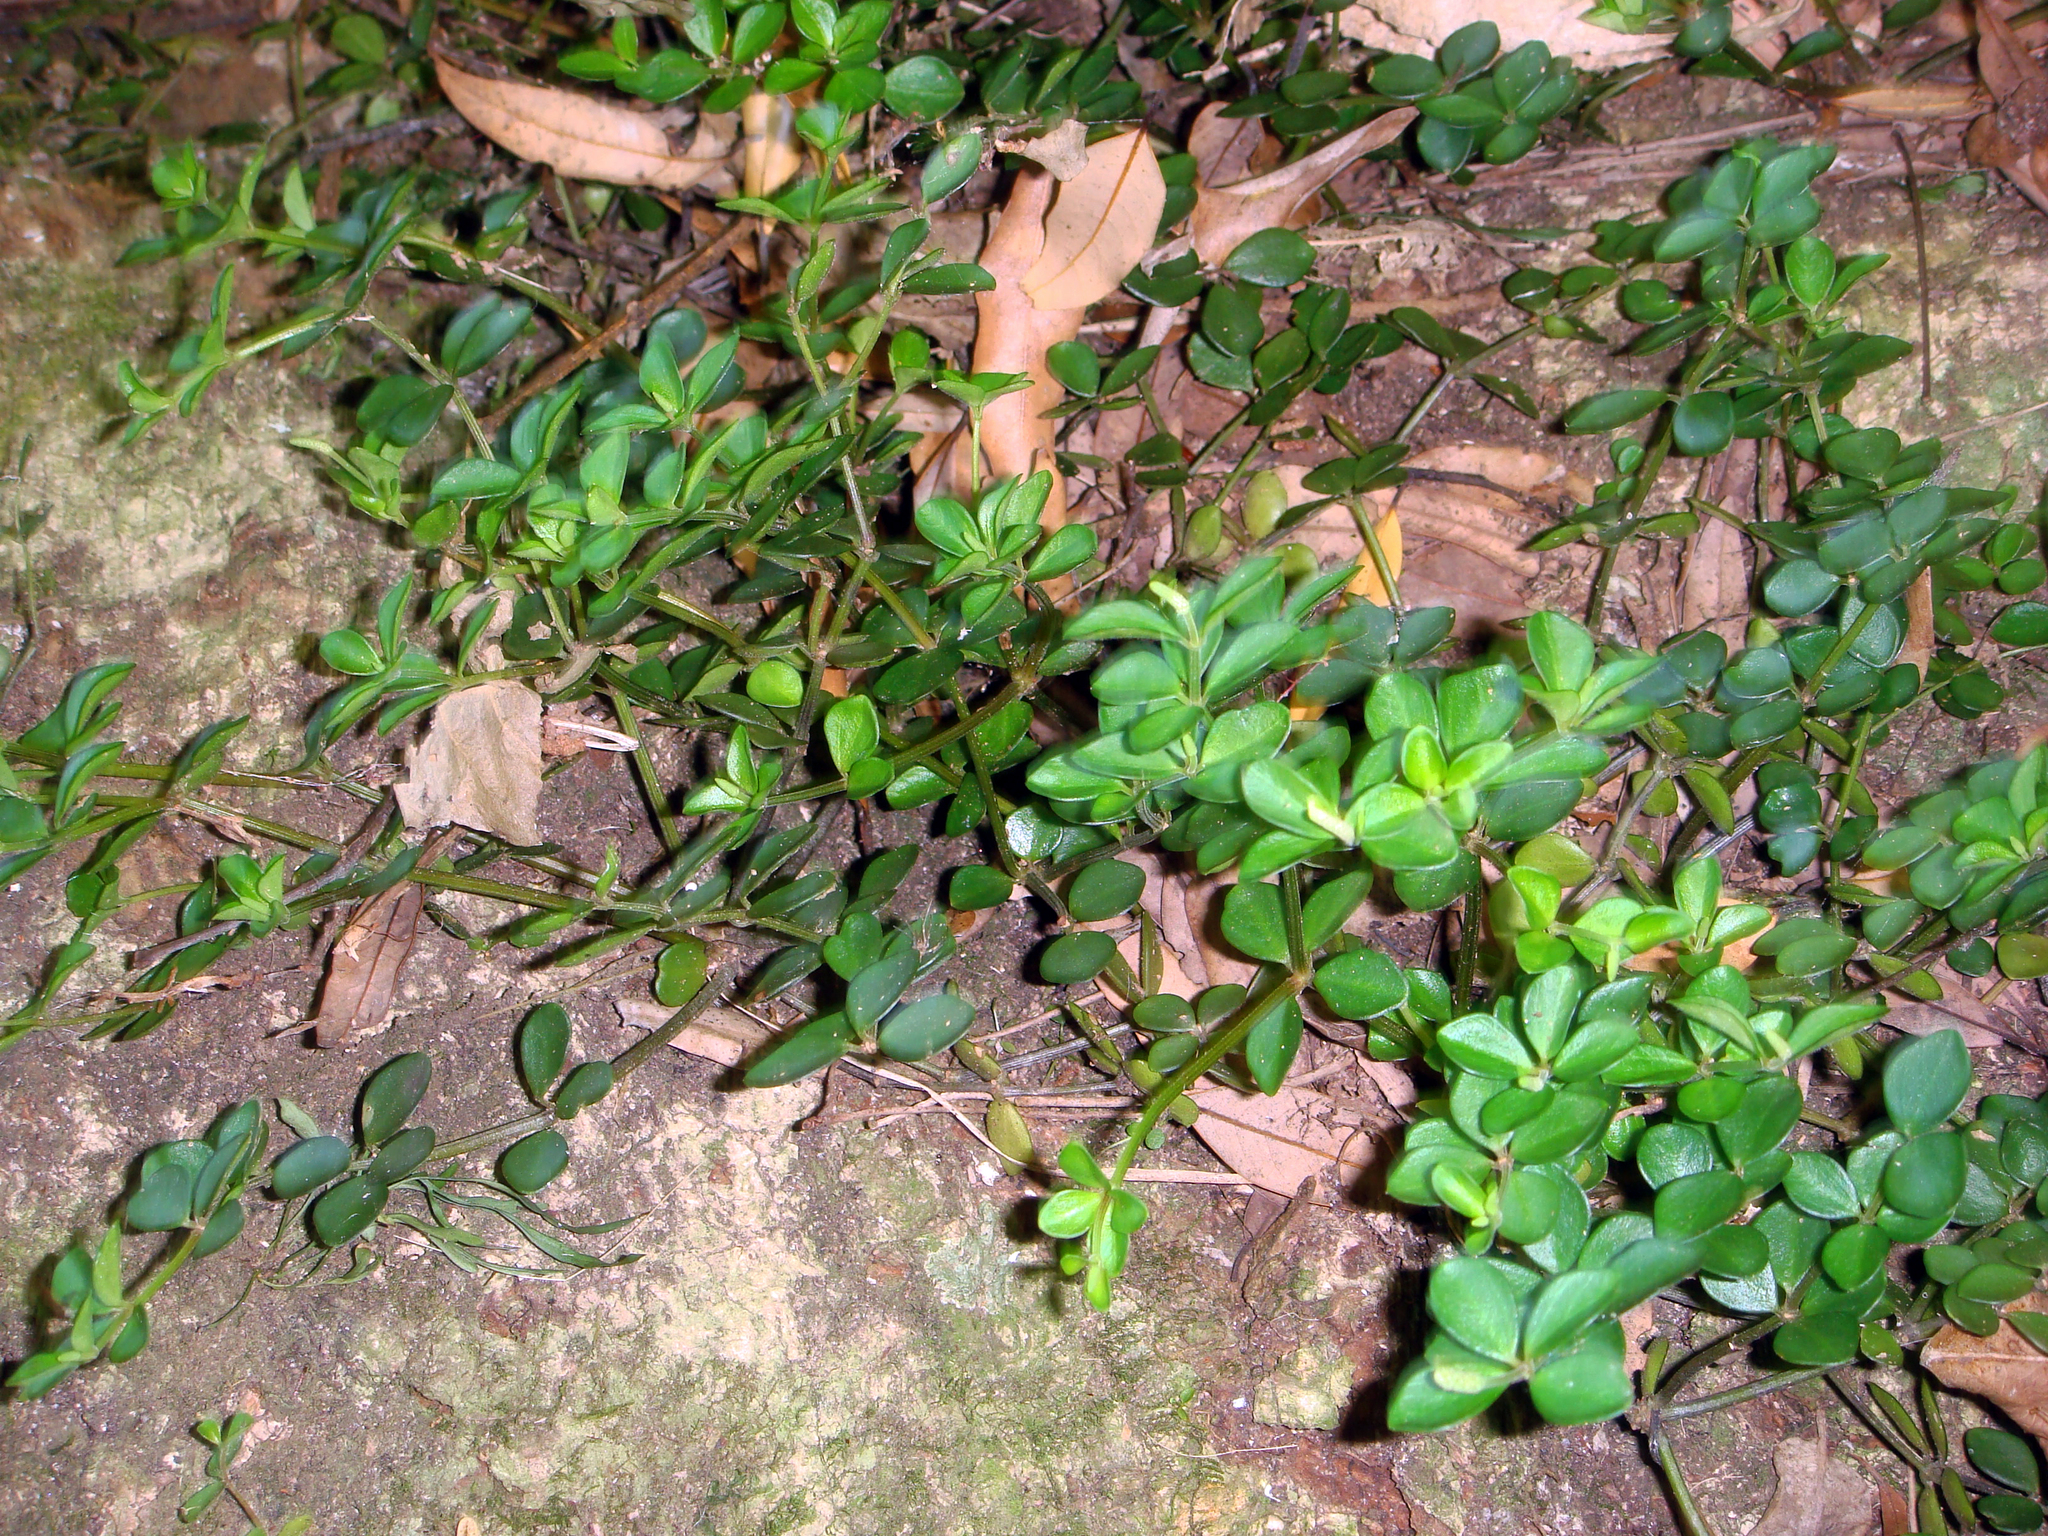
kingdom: Plantae
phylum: Tracheophyta
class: Magnoliopsida
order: Piperales
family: Piperaceae
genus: Peperomia
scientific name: Peperomia tetraphylla
